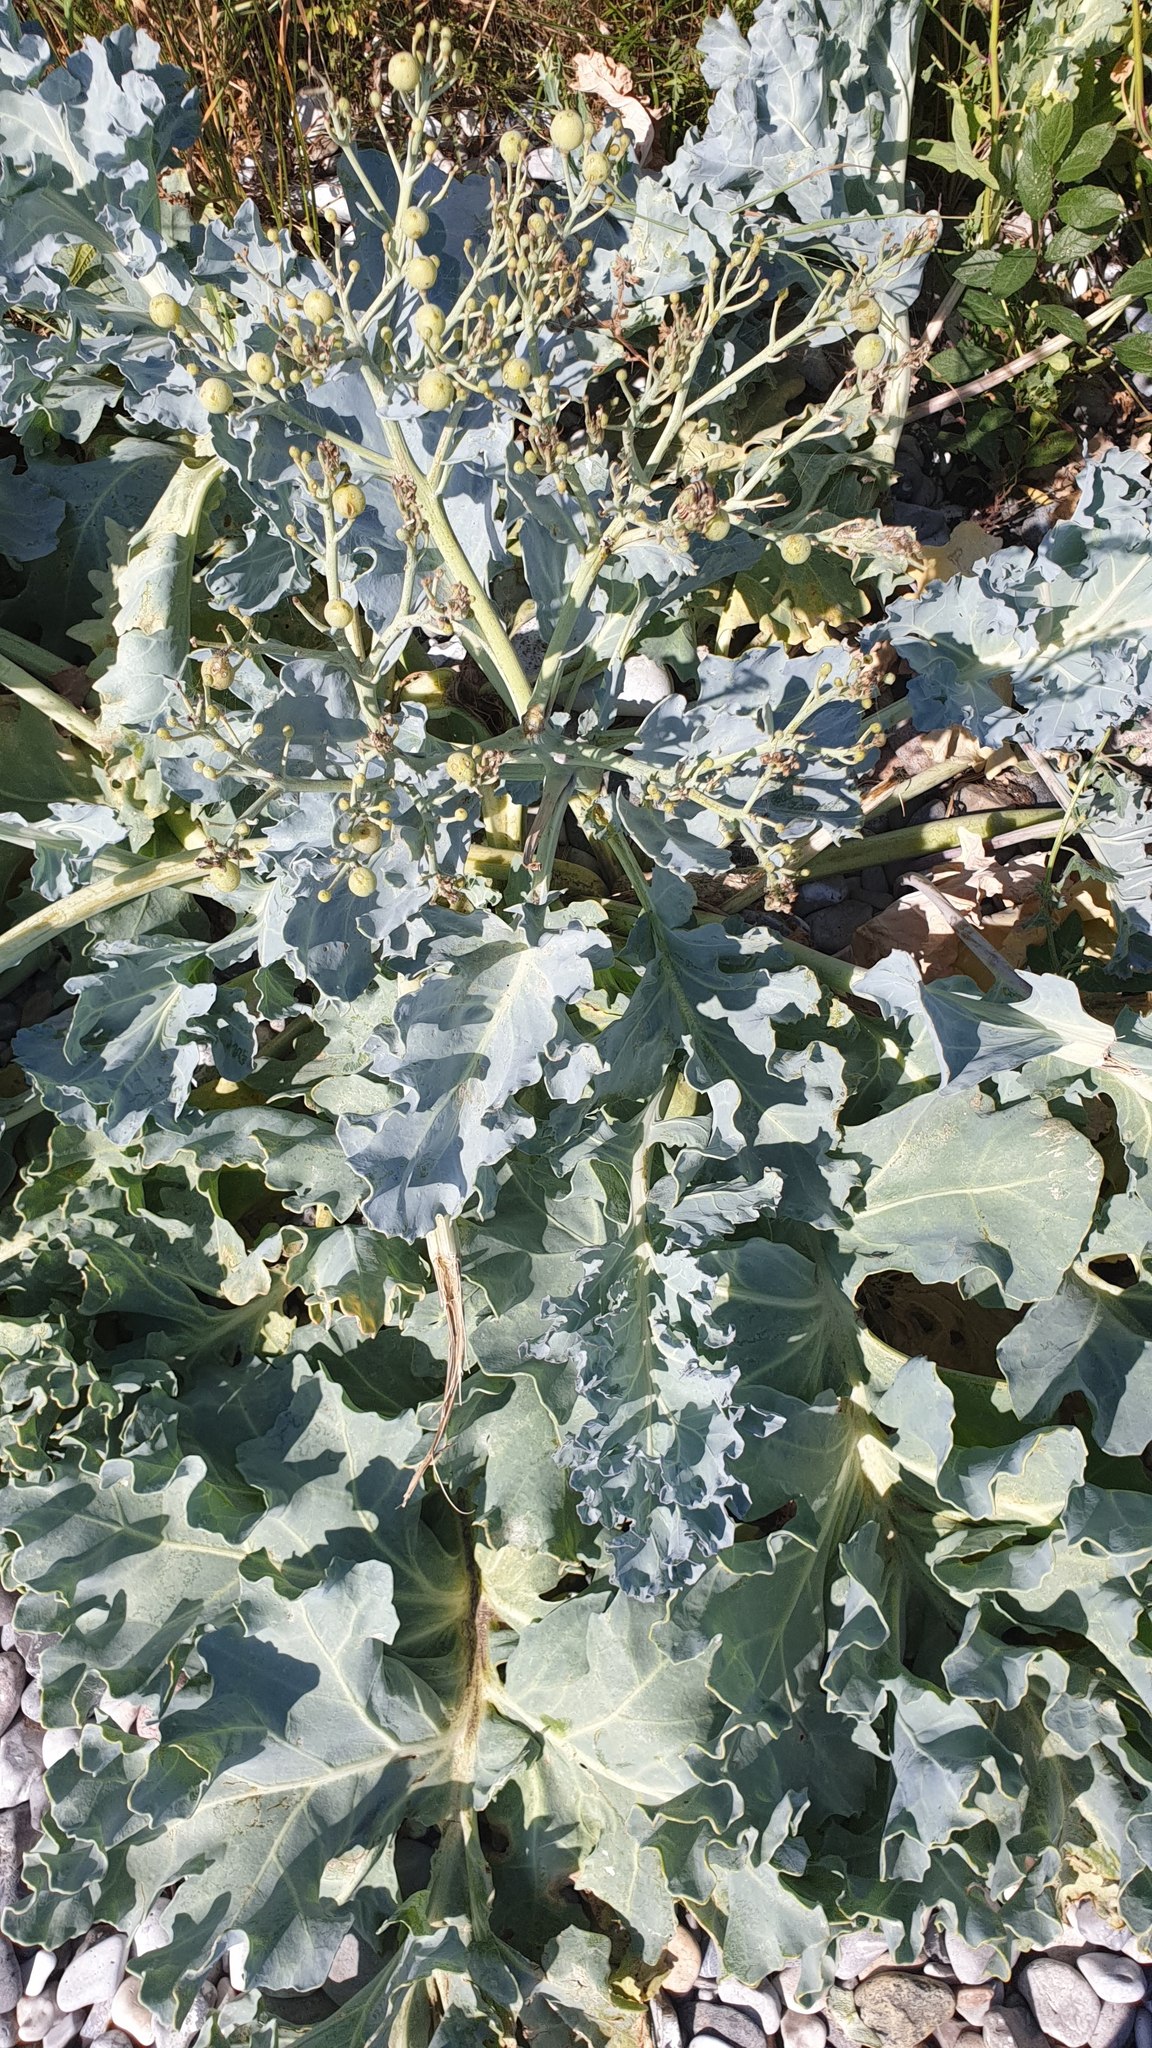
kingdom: Plantae
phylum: Tracheophyta
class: Magnoliopsida
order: Brassicales
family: Brassicaceae
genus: Crambe
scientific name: Crambe maritima
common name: Sea-kale
